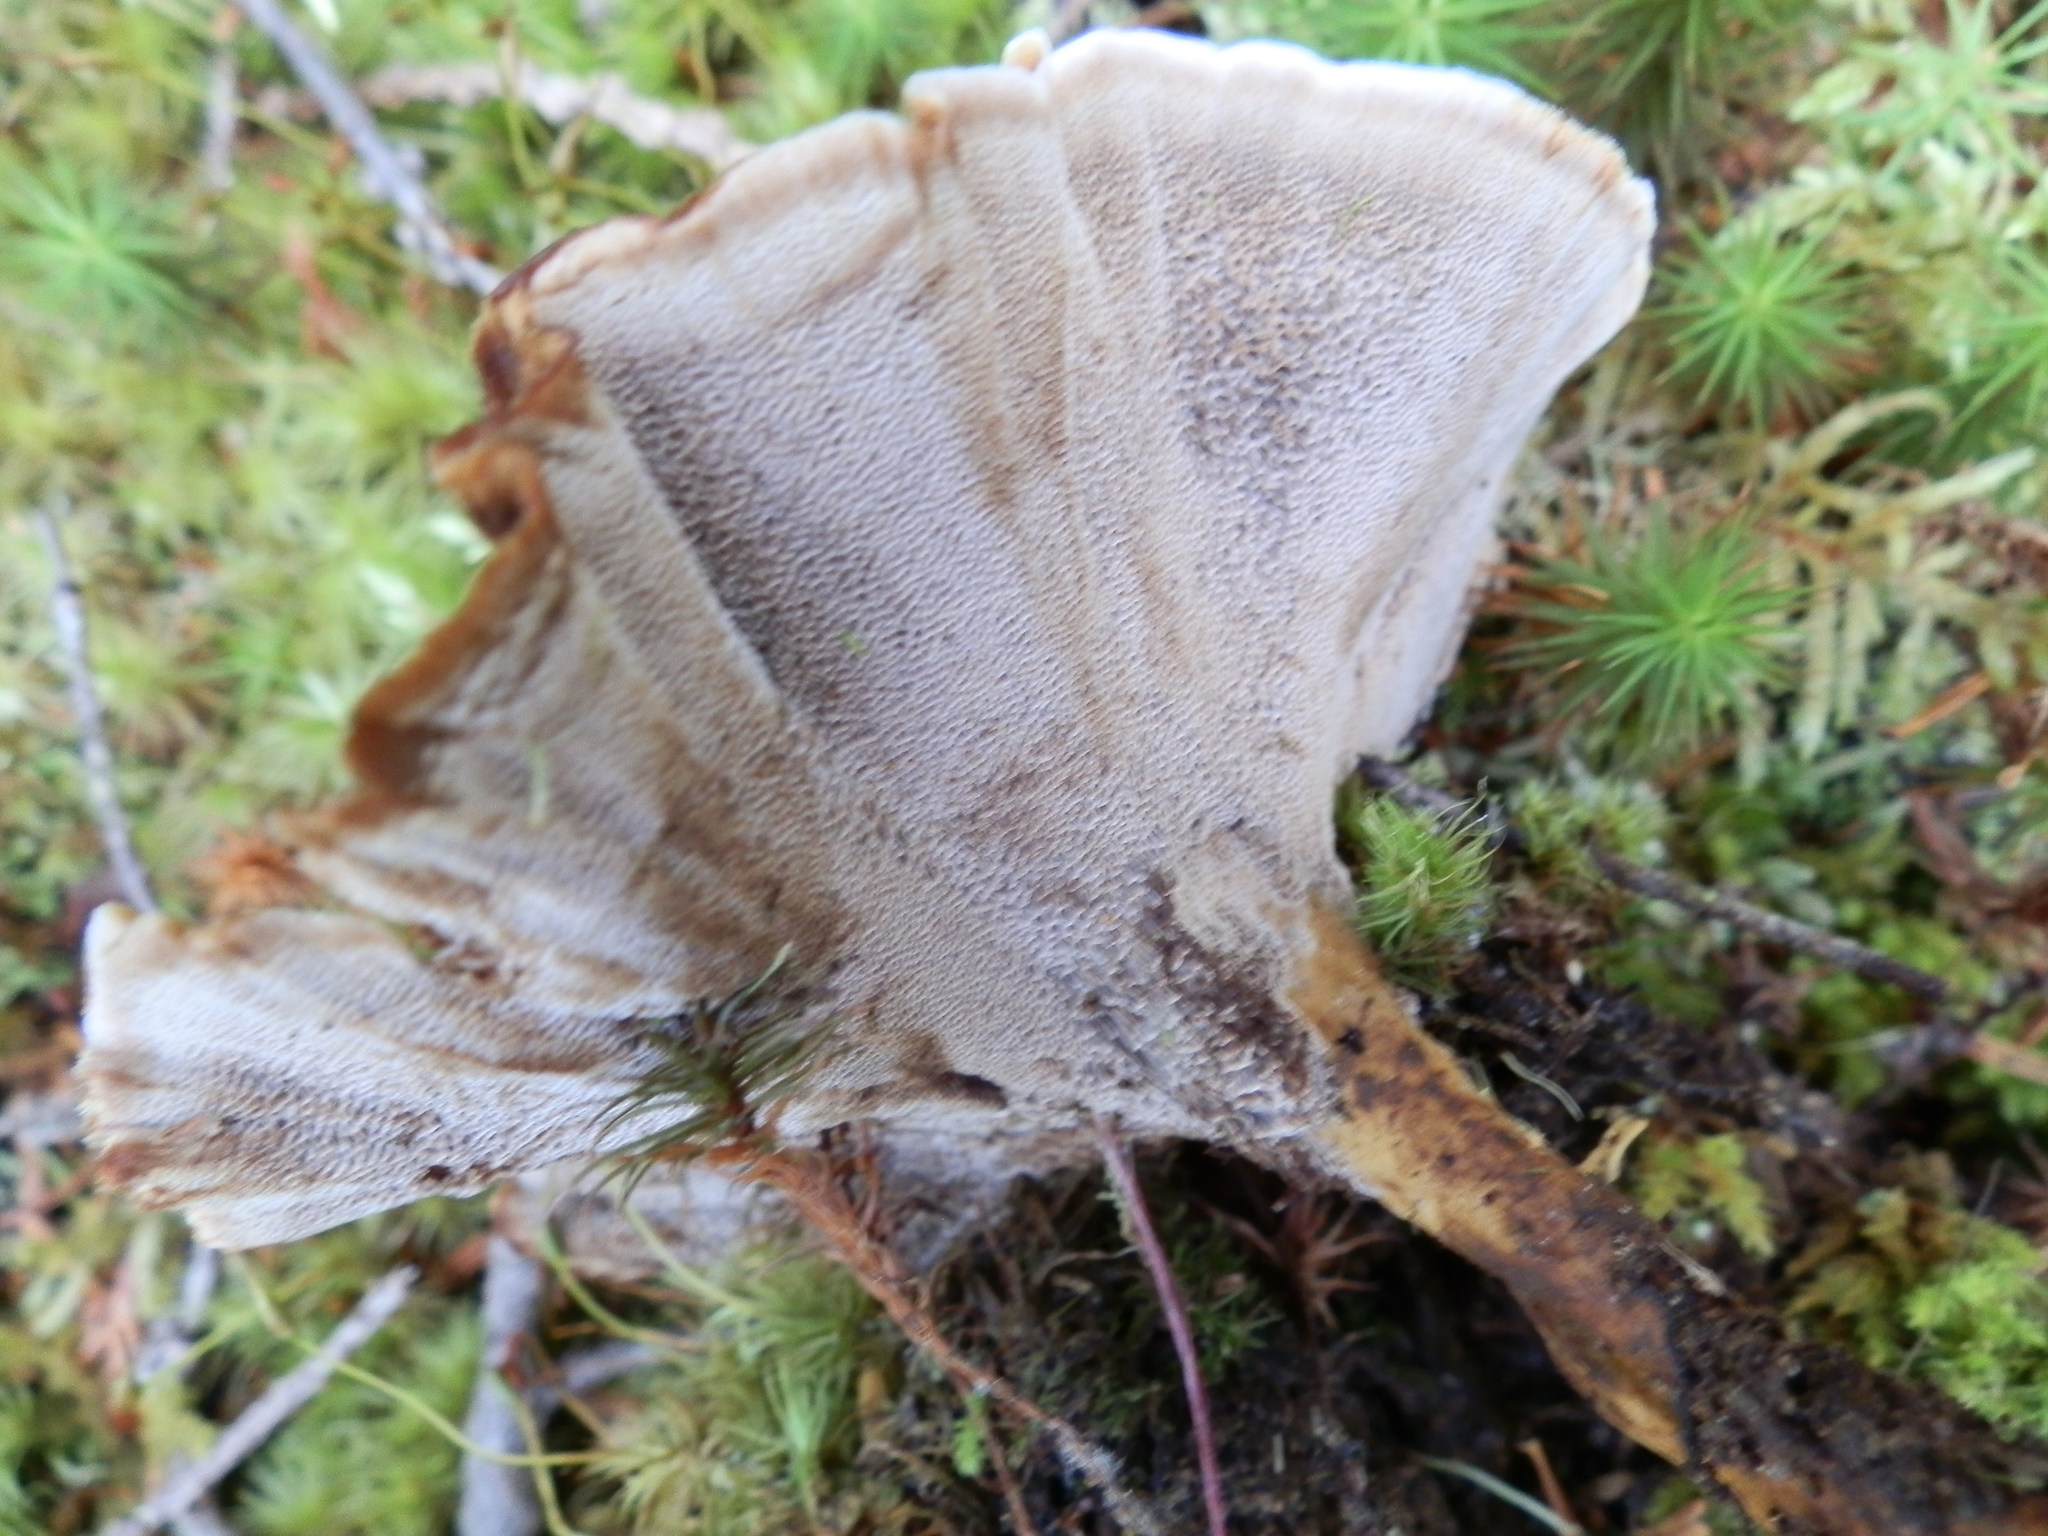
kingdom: Fungi
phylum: Basidiomycota
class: Agaricomycetes
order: Hymenochaetales
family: Hymenochaetaceae
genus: Coltricia
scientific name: Coltricia perennis
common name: Tiger's eye
